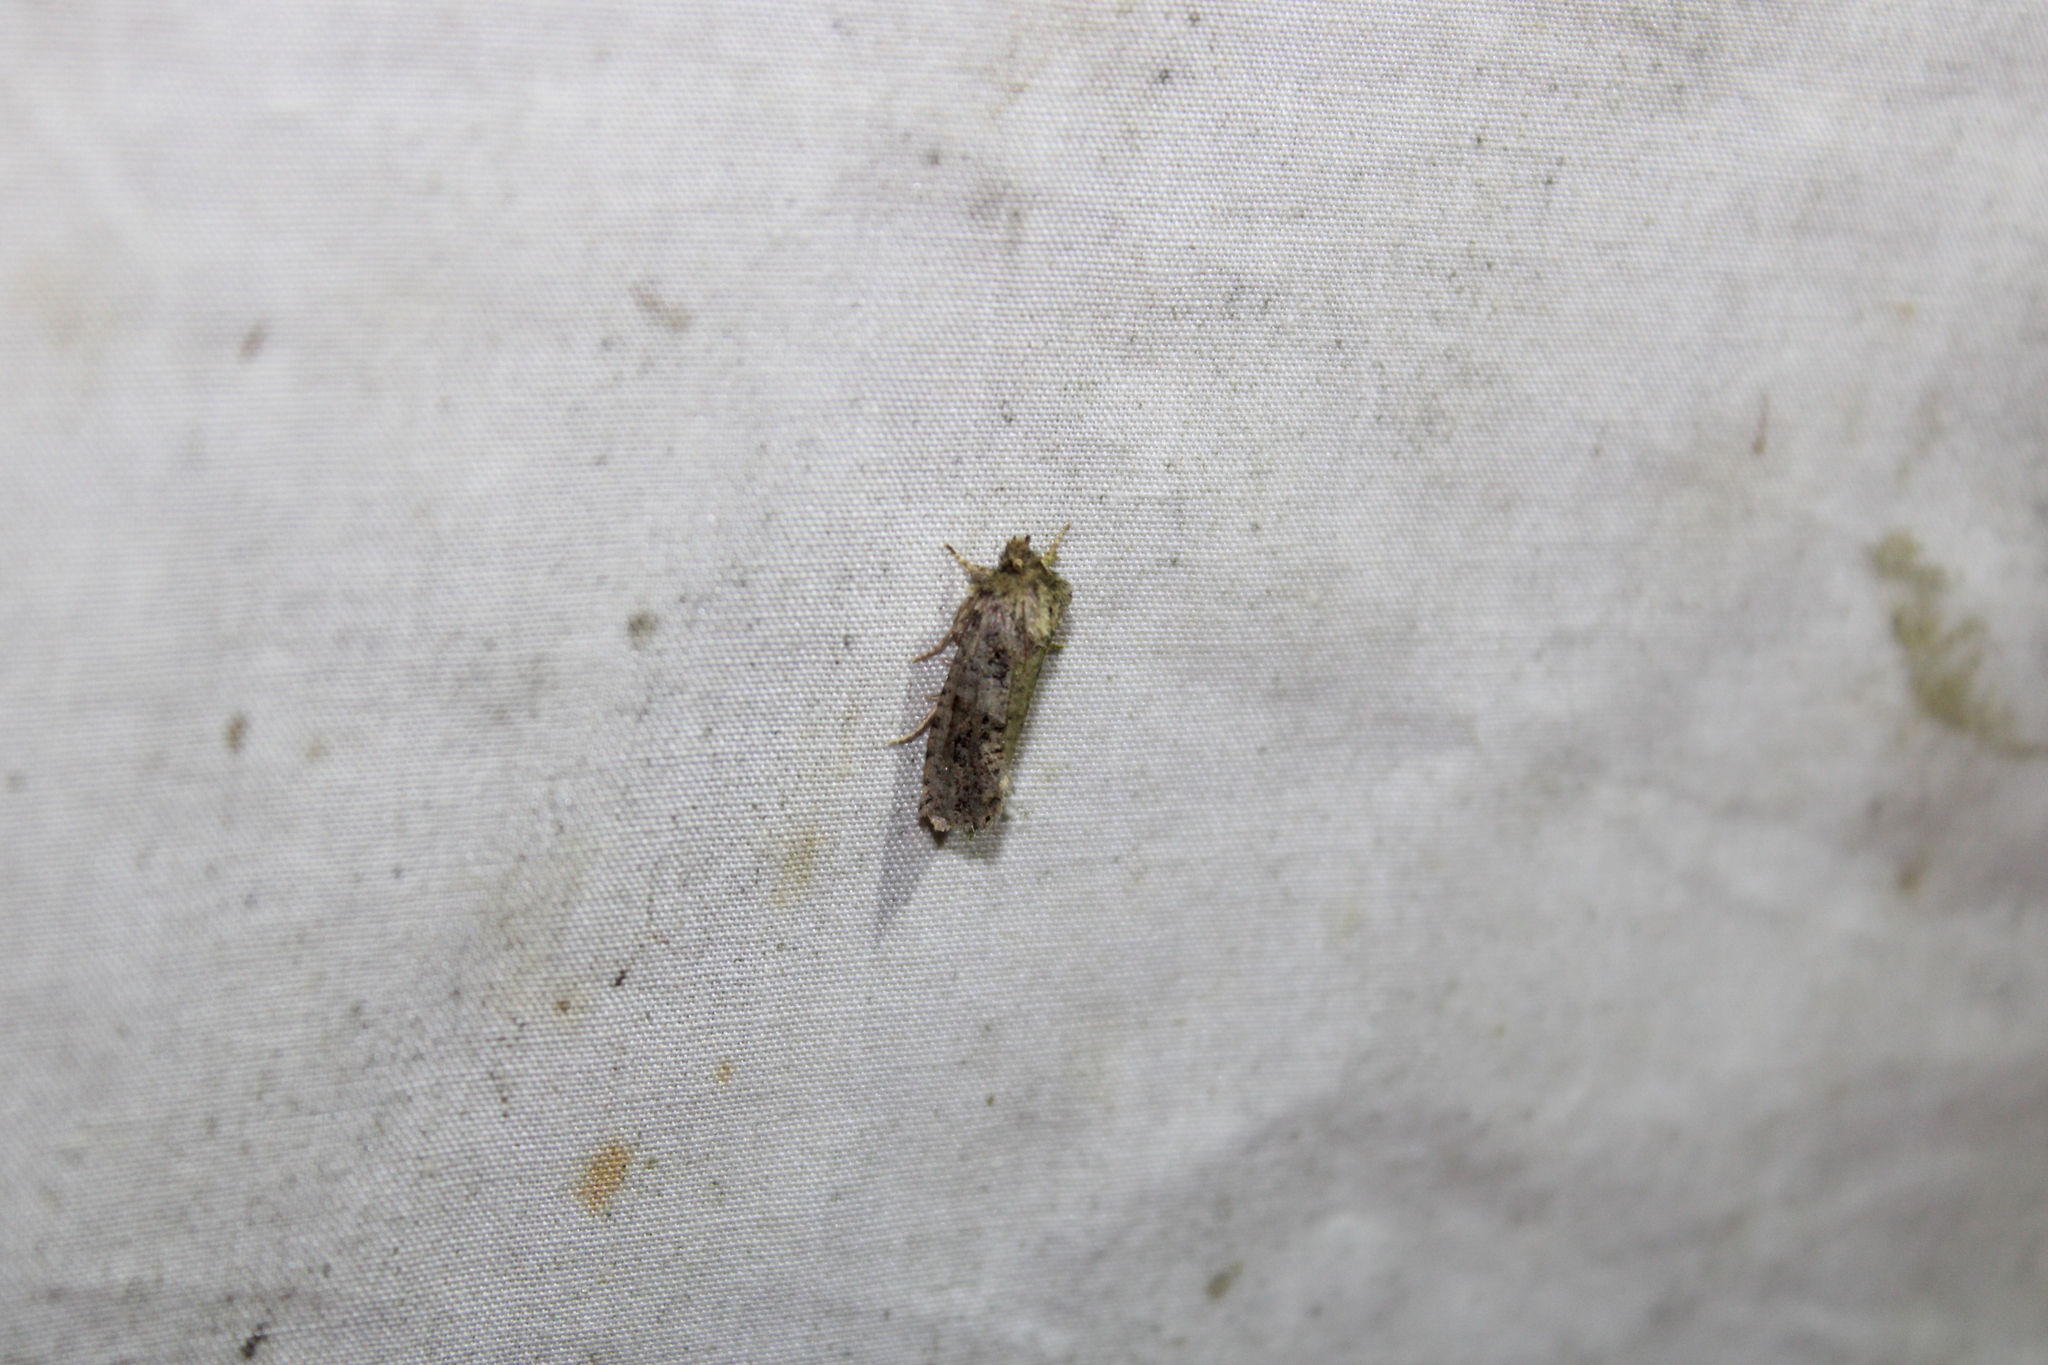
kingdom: Animalia
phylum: Arthropoda
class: Insecta
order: Lepidoptera
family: Tineidae
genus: Acrolophus
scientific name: Acrolophus arcanella
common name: Arcane grass tubeworm moth
